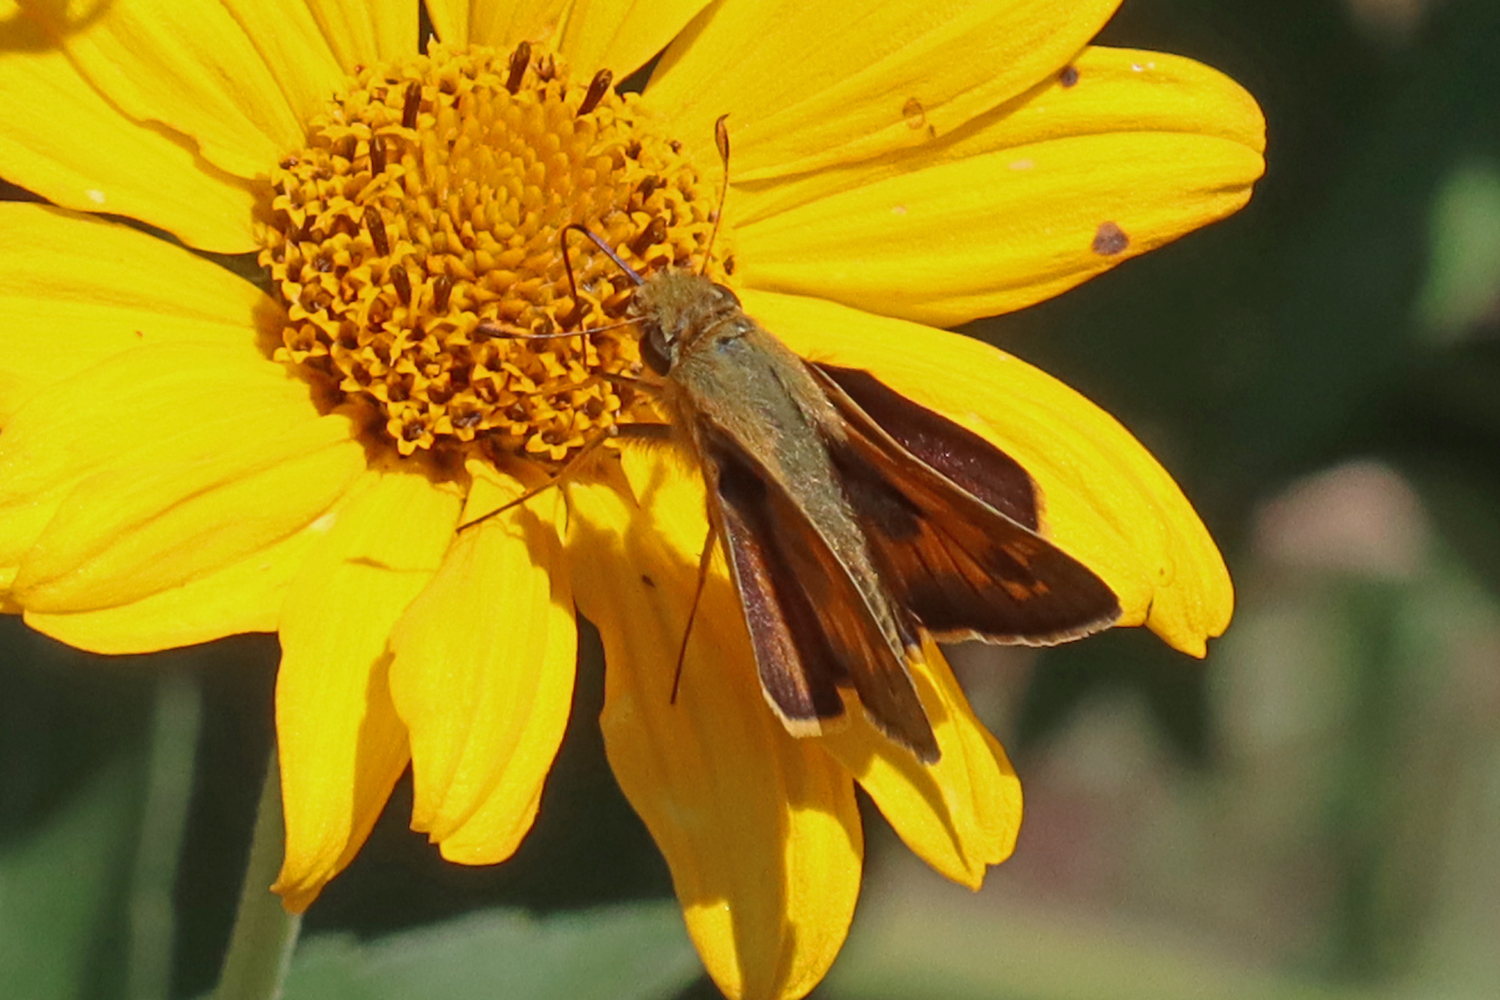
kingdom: Animalia
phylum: Arthropoda
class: Insecta
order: Lepidoptera
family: Hesperiidae
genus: Atalopedes
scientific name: Atalopedes
